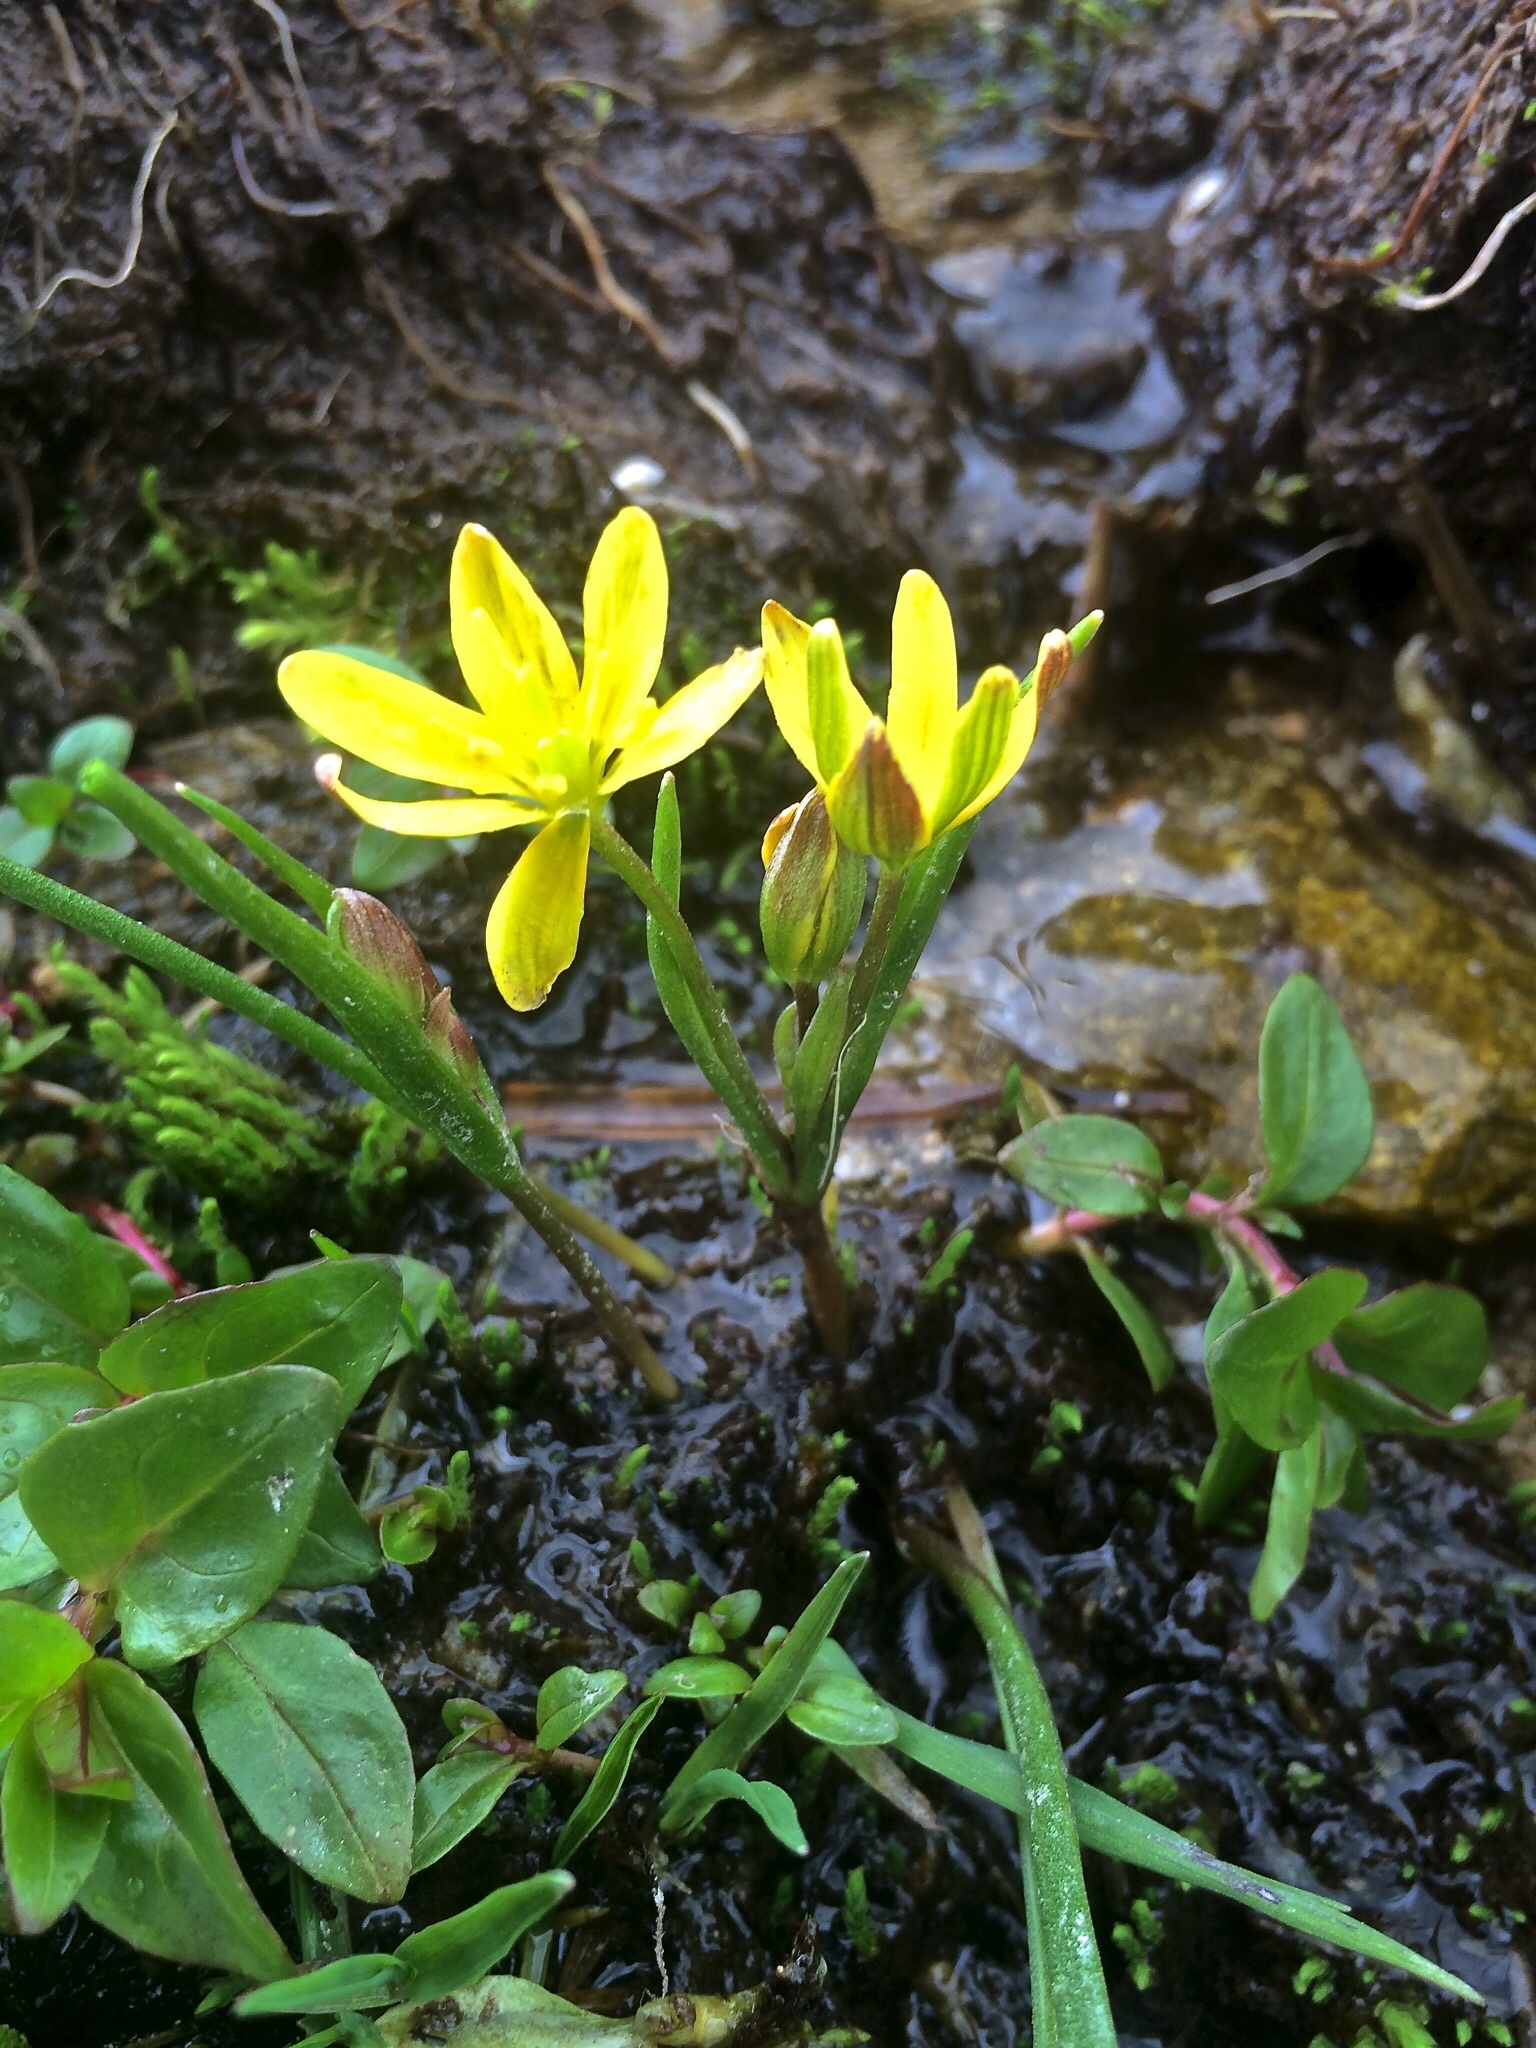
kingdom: Plantae
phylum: Tracheophyta
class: Liliopsida
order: Liliales
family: Liliaceae
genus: Gagea
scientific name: Gagea fragifera
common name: Lily
